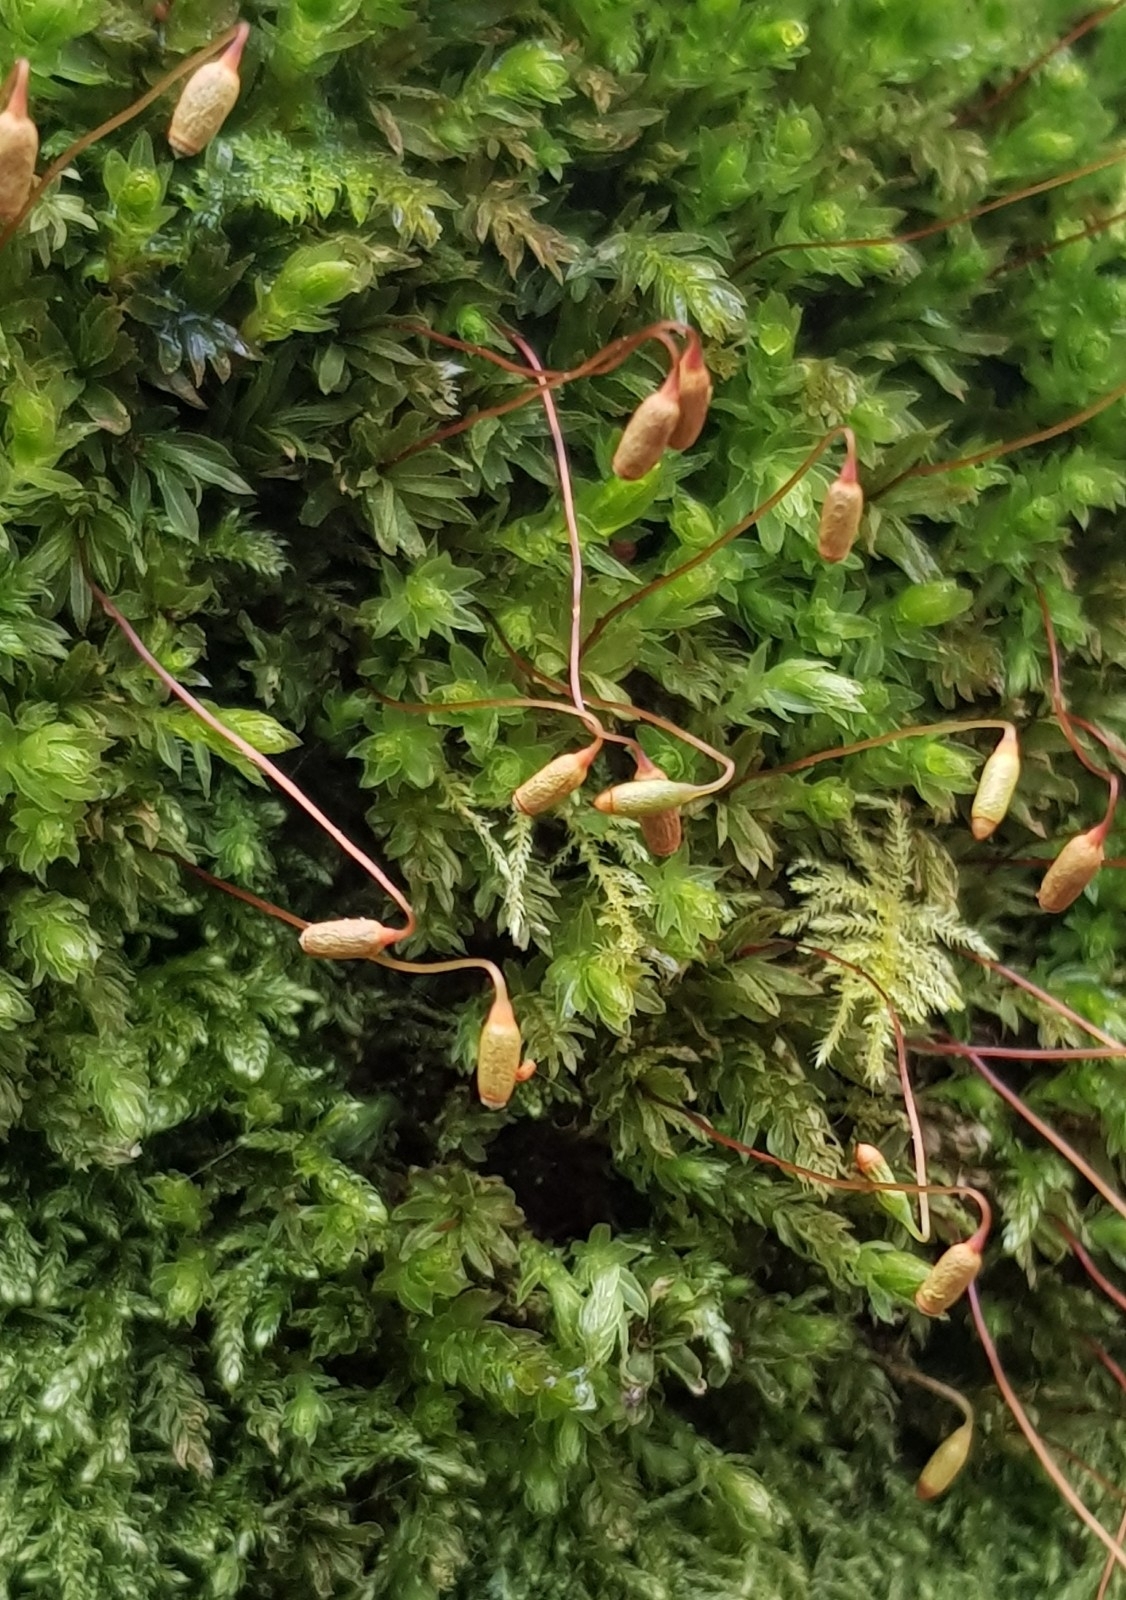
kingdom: Plantae
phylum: Bryophyta
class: Bryopsida
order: Bryales
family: Mniaceae
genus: Mnium
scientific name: Mnium hornum
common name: Swan's-neck leafy moss
